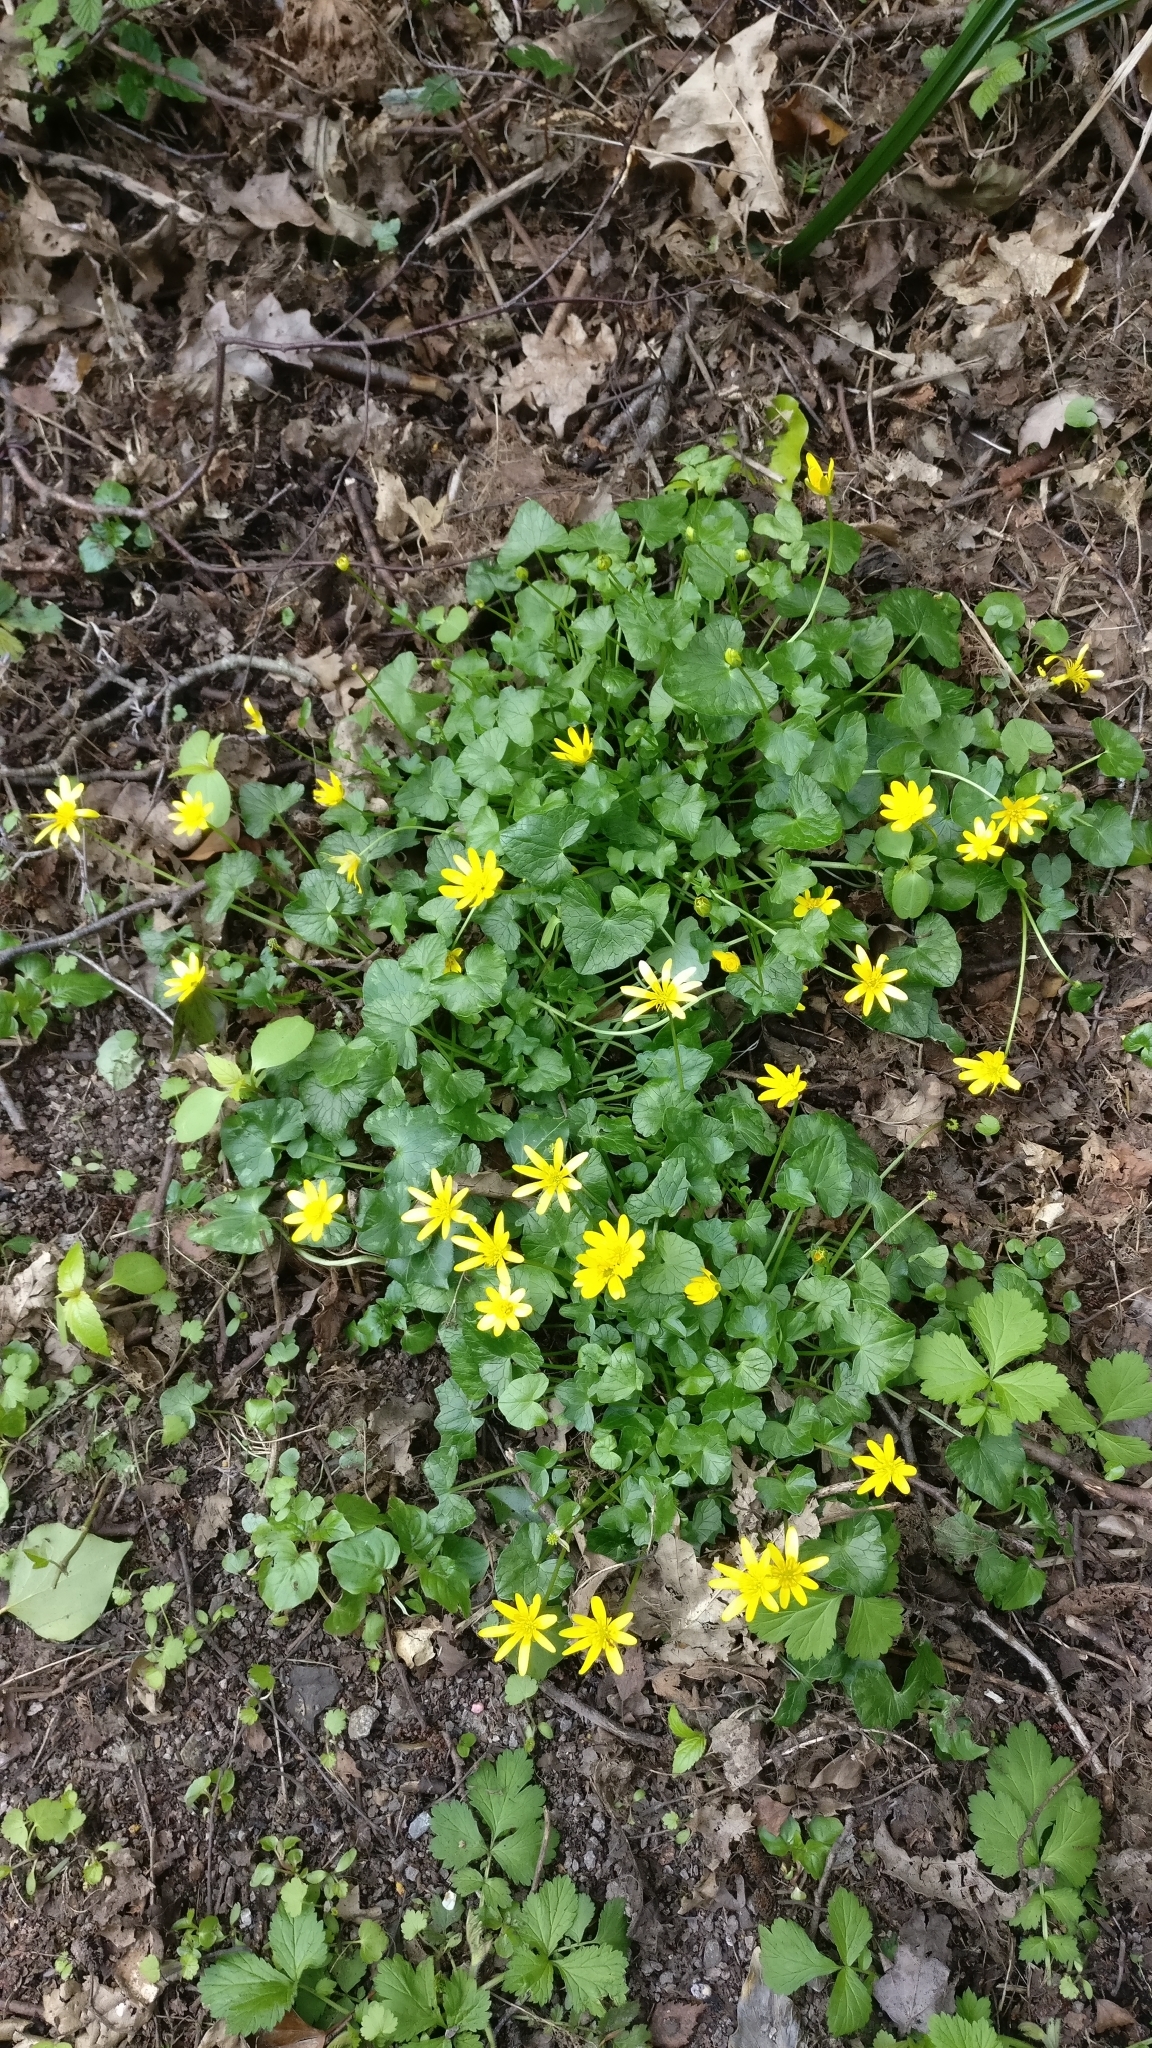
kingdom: Plantae
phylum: Tracheophyta
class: Magnoliopsida
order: Ranunculales
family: Ranunculaceae
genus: Ficaria
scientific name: Ficaria verna
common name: Lesser celandine
